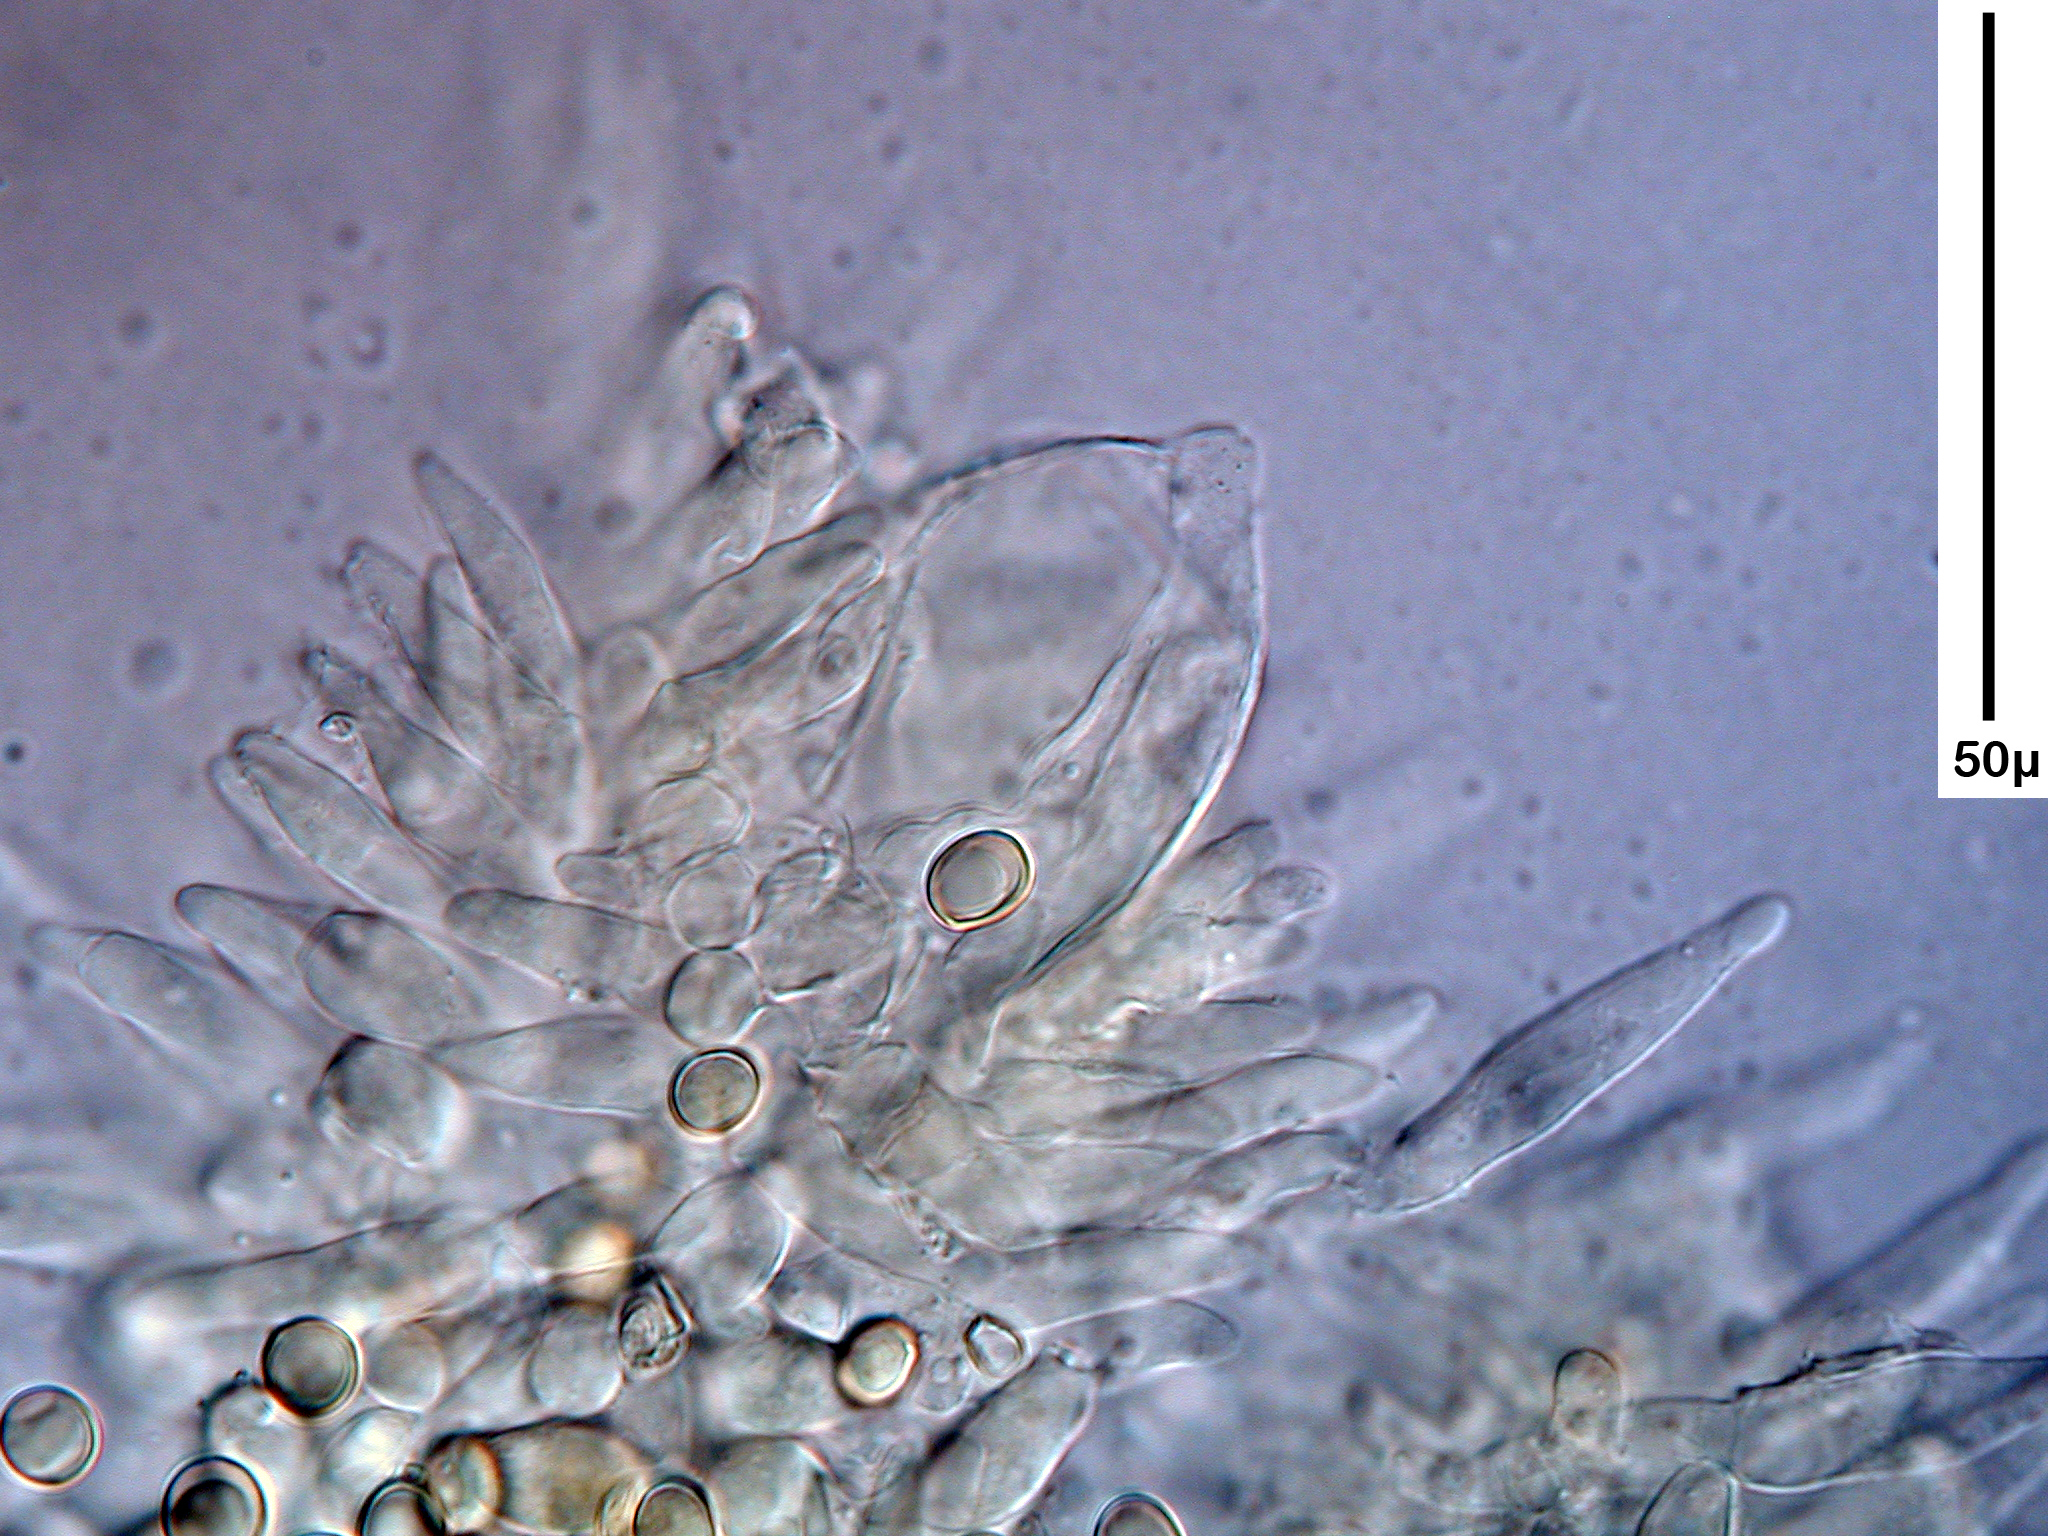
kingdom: Fungi
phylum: Basidiomycota
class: Agaricomycetes
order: Agaricales
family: Pluteaceae
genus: Pluteus
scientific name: Pluteus paradoxus
